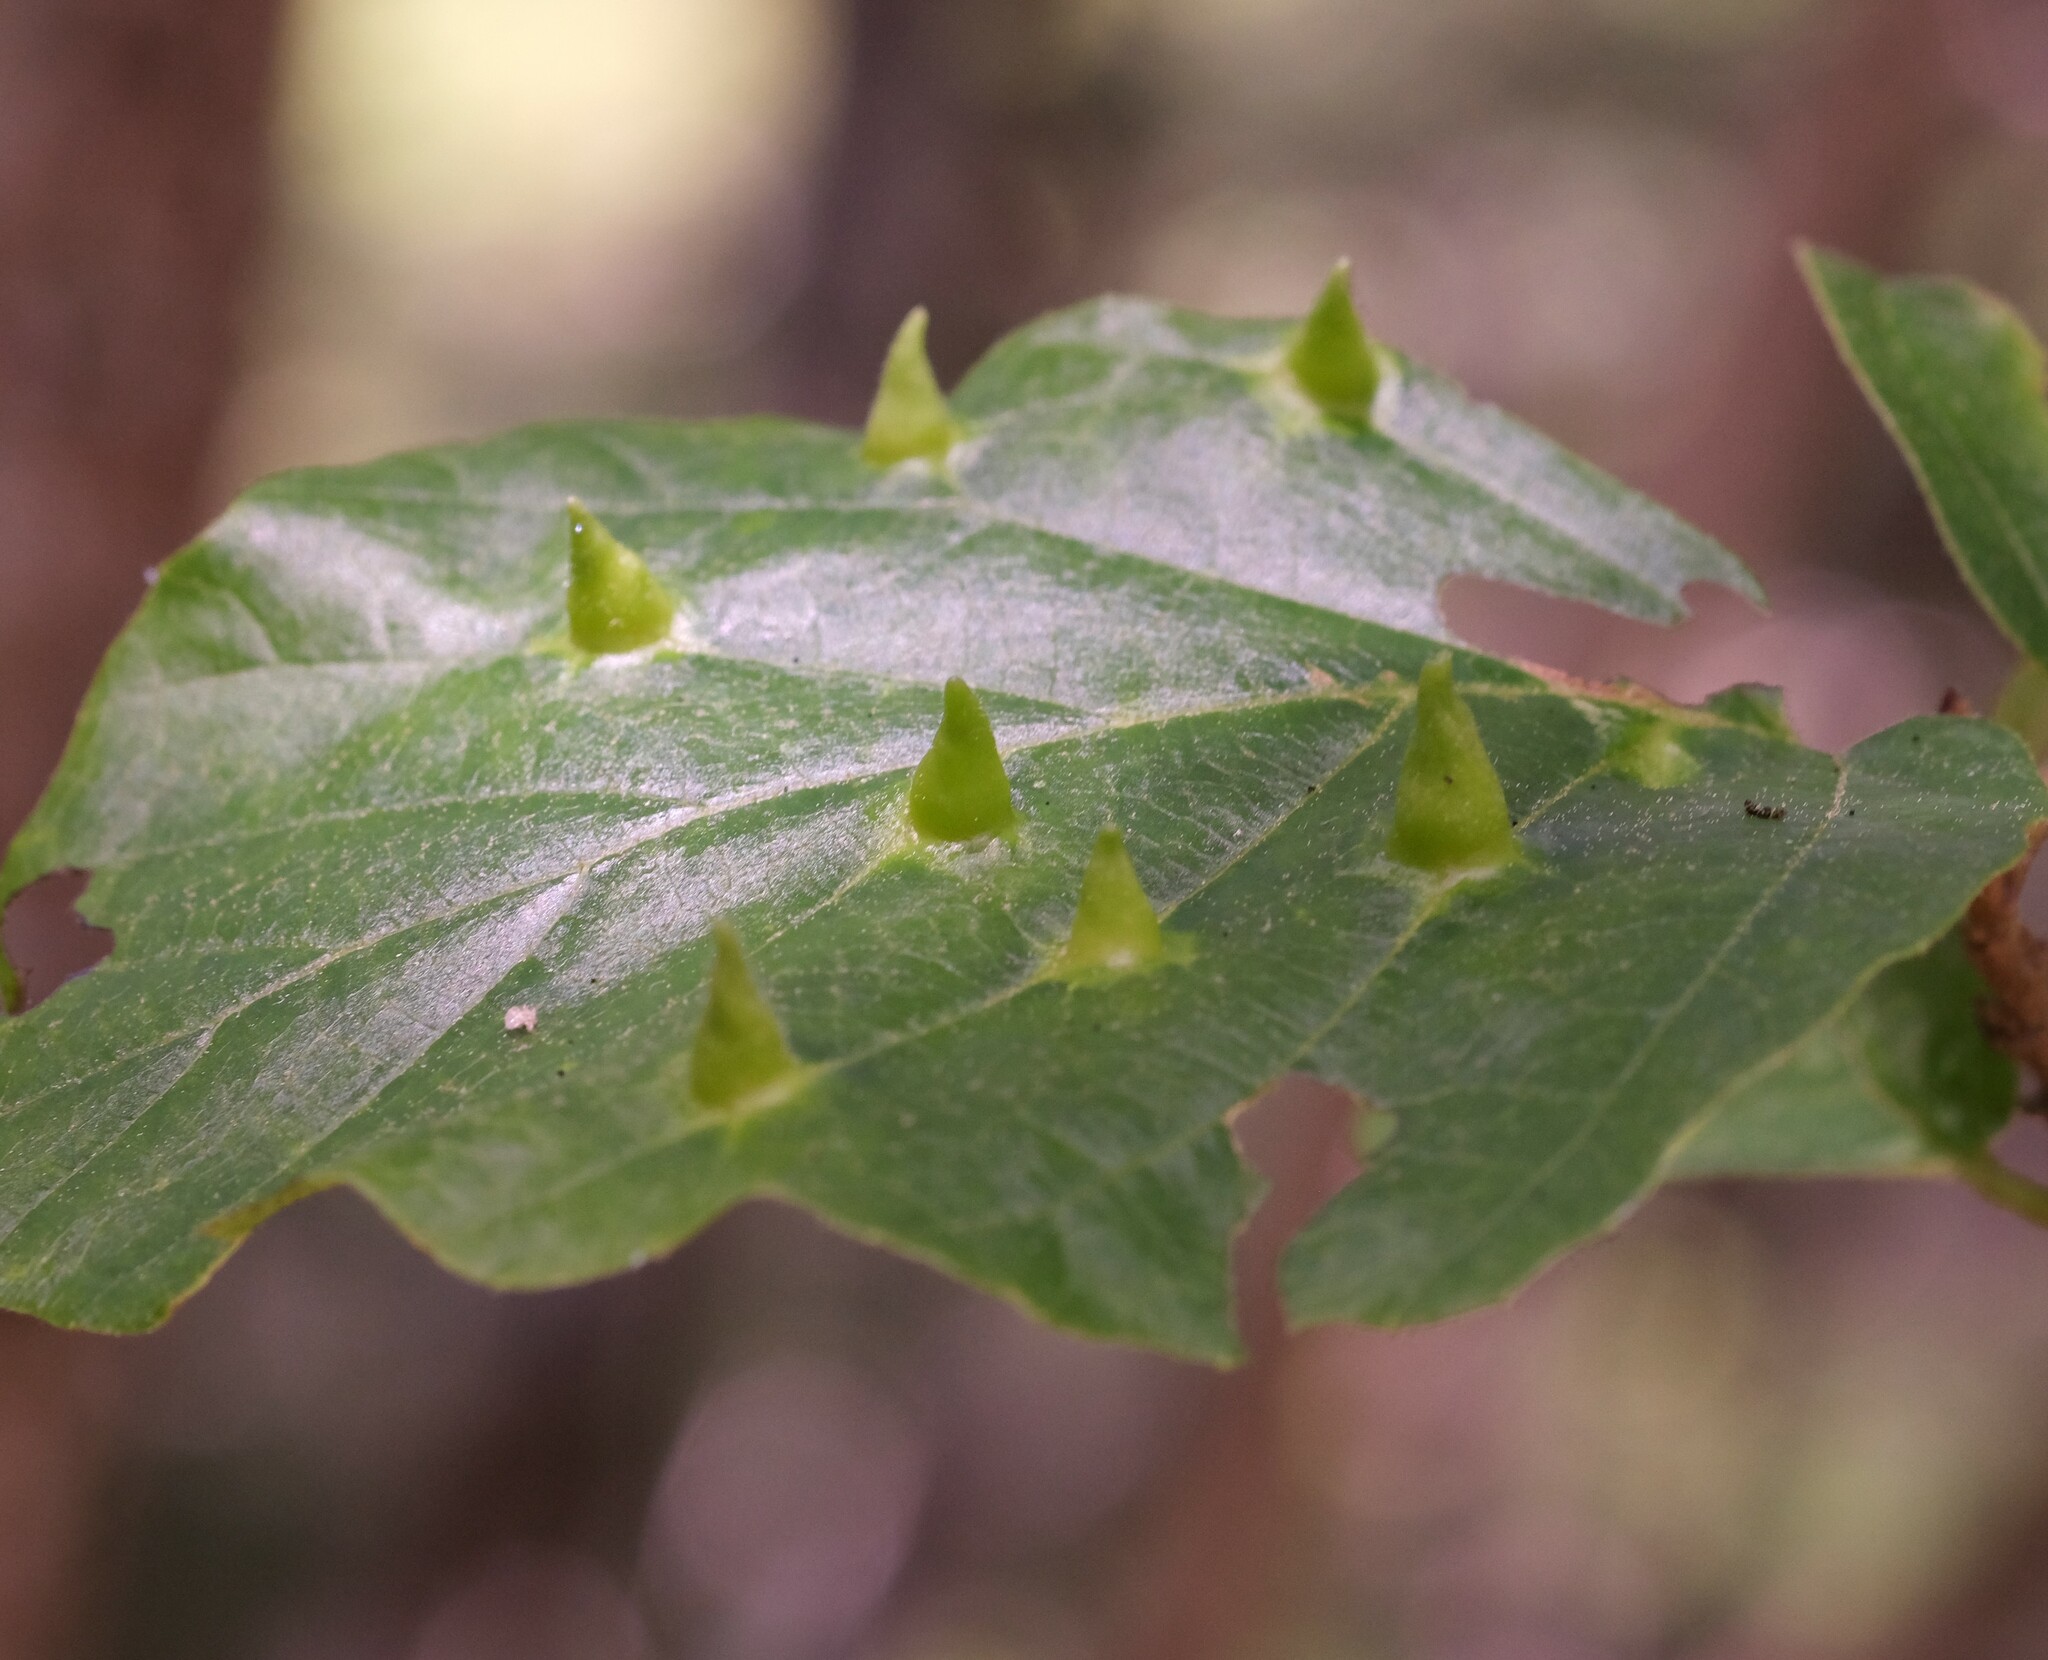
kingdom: Animalia
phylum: Arthropoda
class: Insecta
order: Hemiptera
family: Aphididae
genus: Hormaphis
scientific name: Hormaphis hamamelidis
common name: Witch-hazel cone gall aphid
